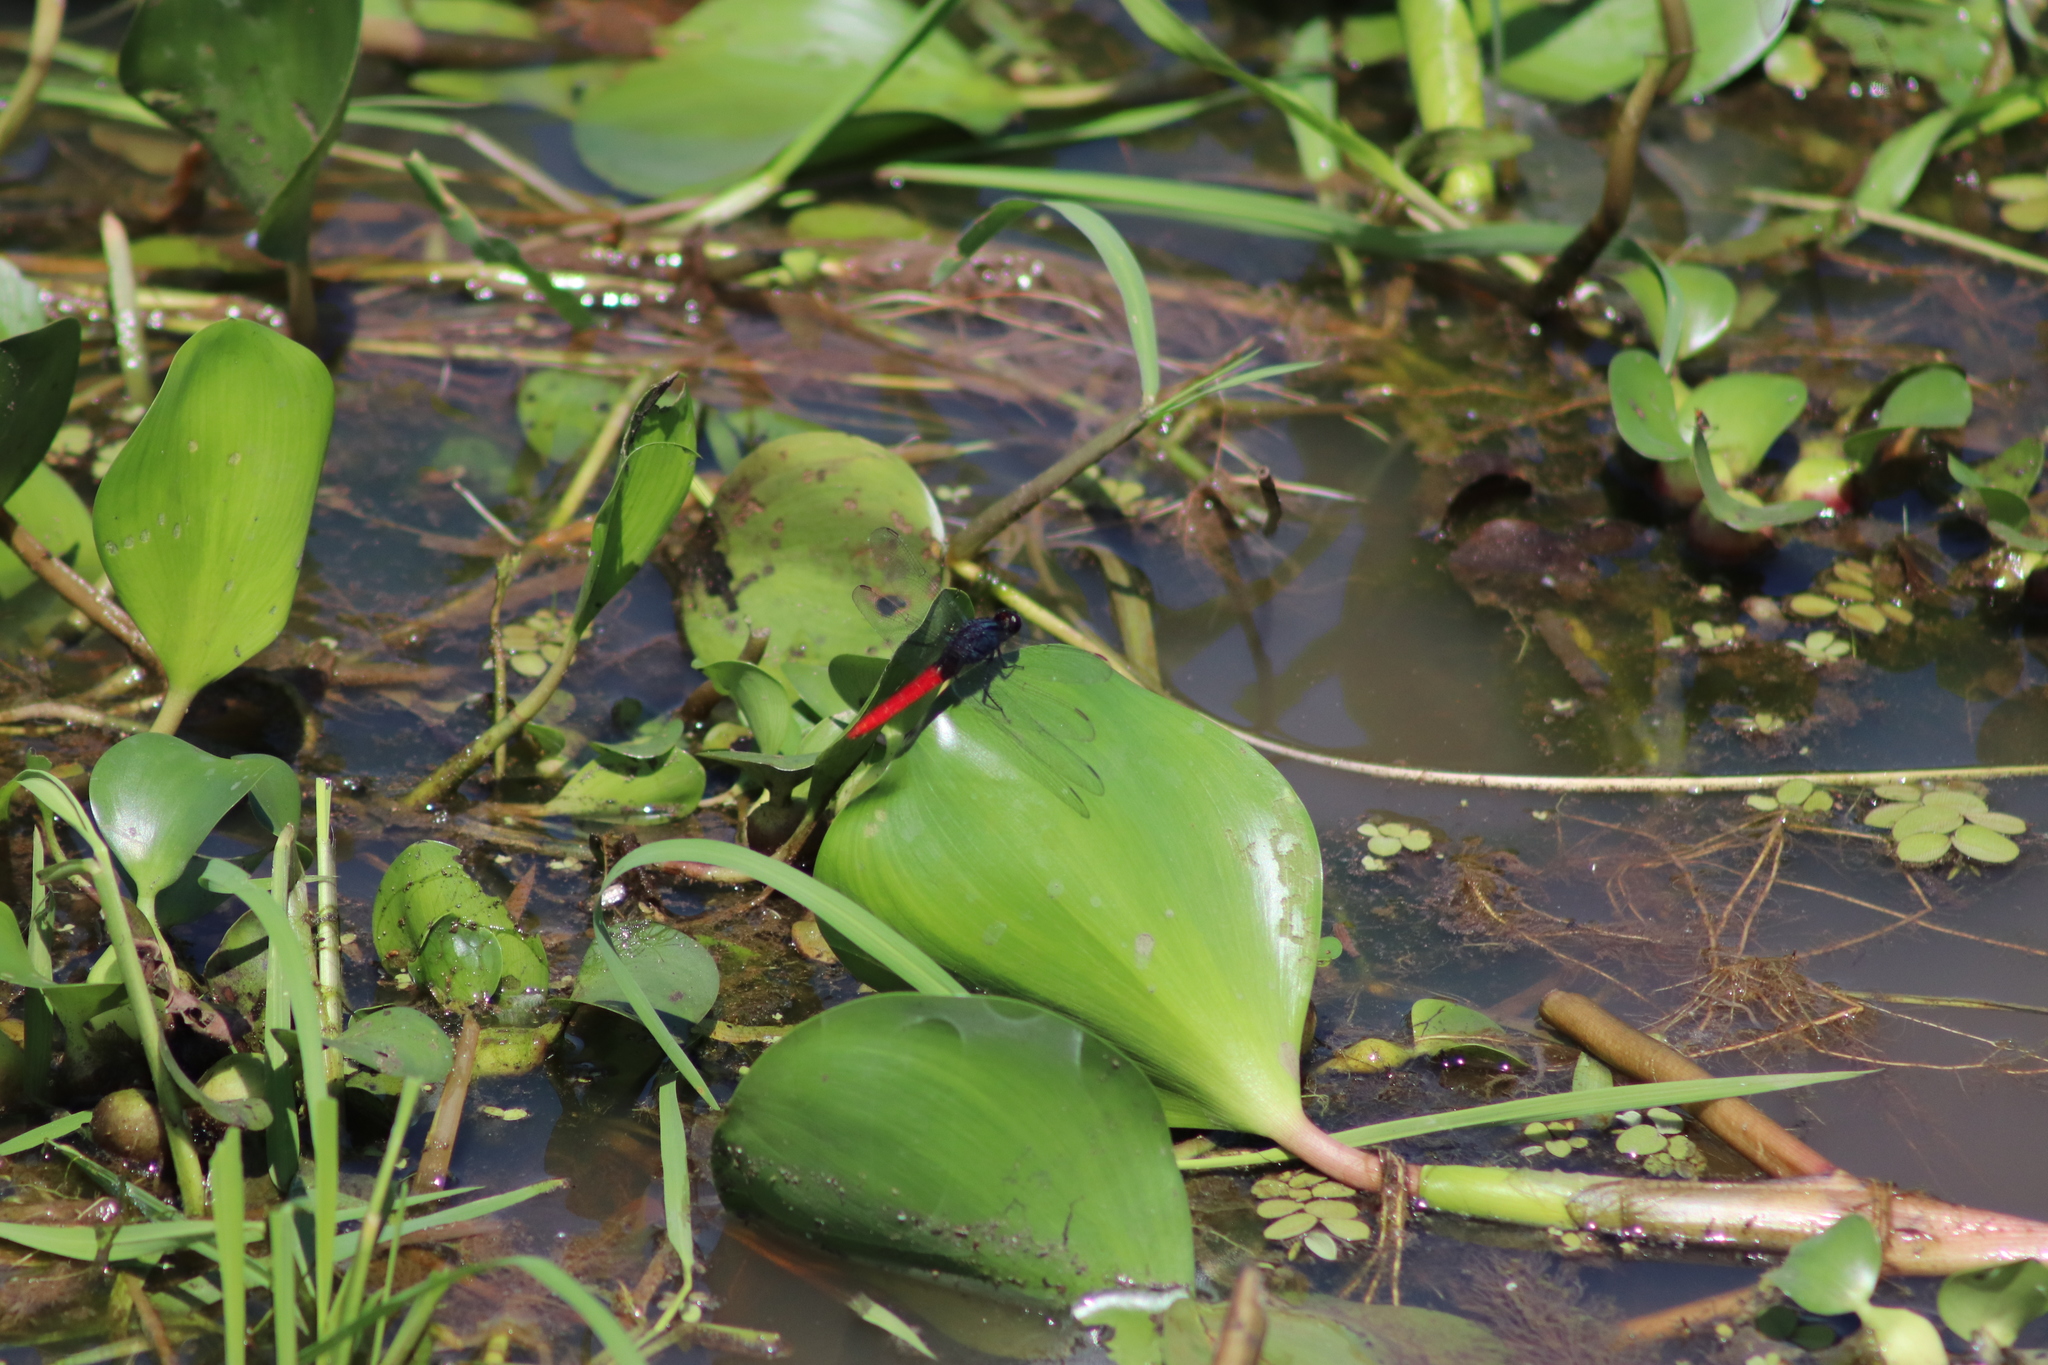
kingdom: Animalia
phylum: Arthropoda
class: Insecta
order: Odonata
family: Libellulidae
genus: Erythemis
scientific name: Erythemis peruviana
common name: Flame-tailed pondhawk
